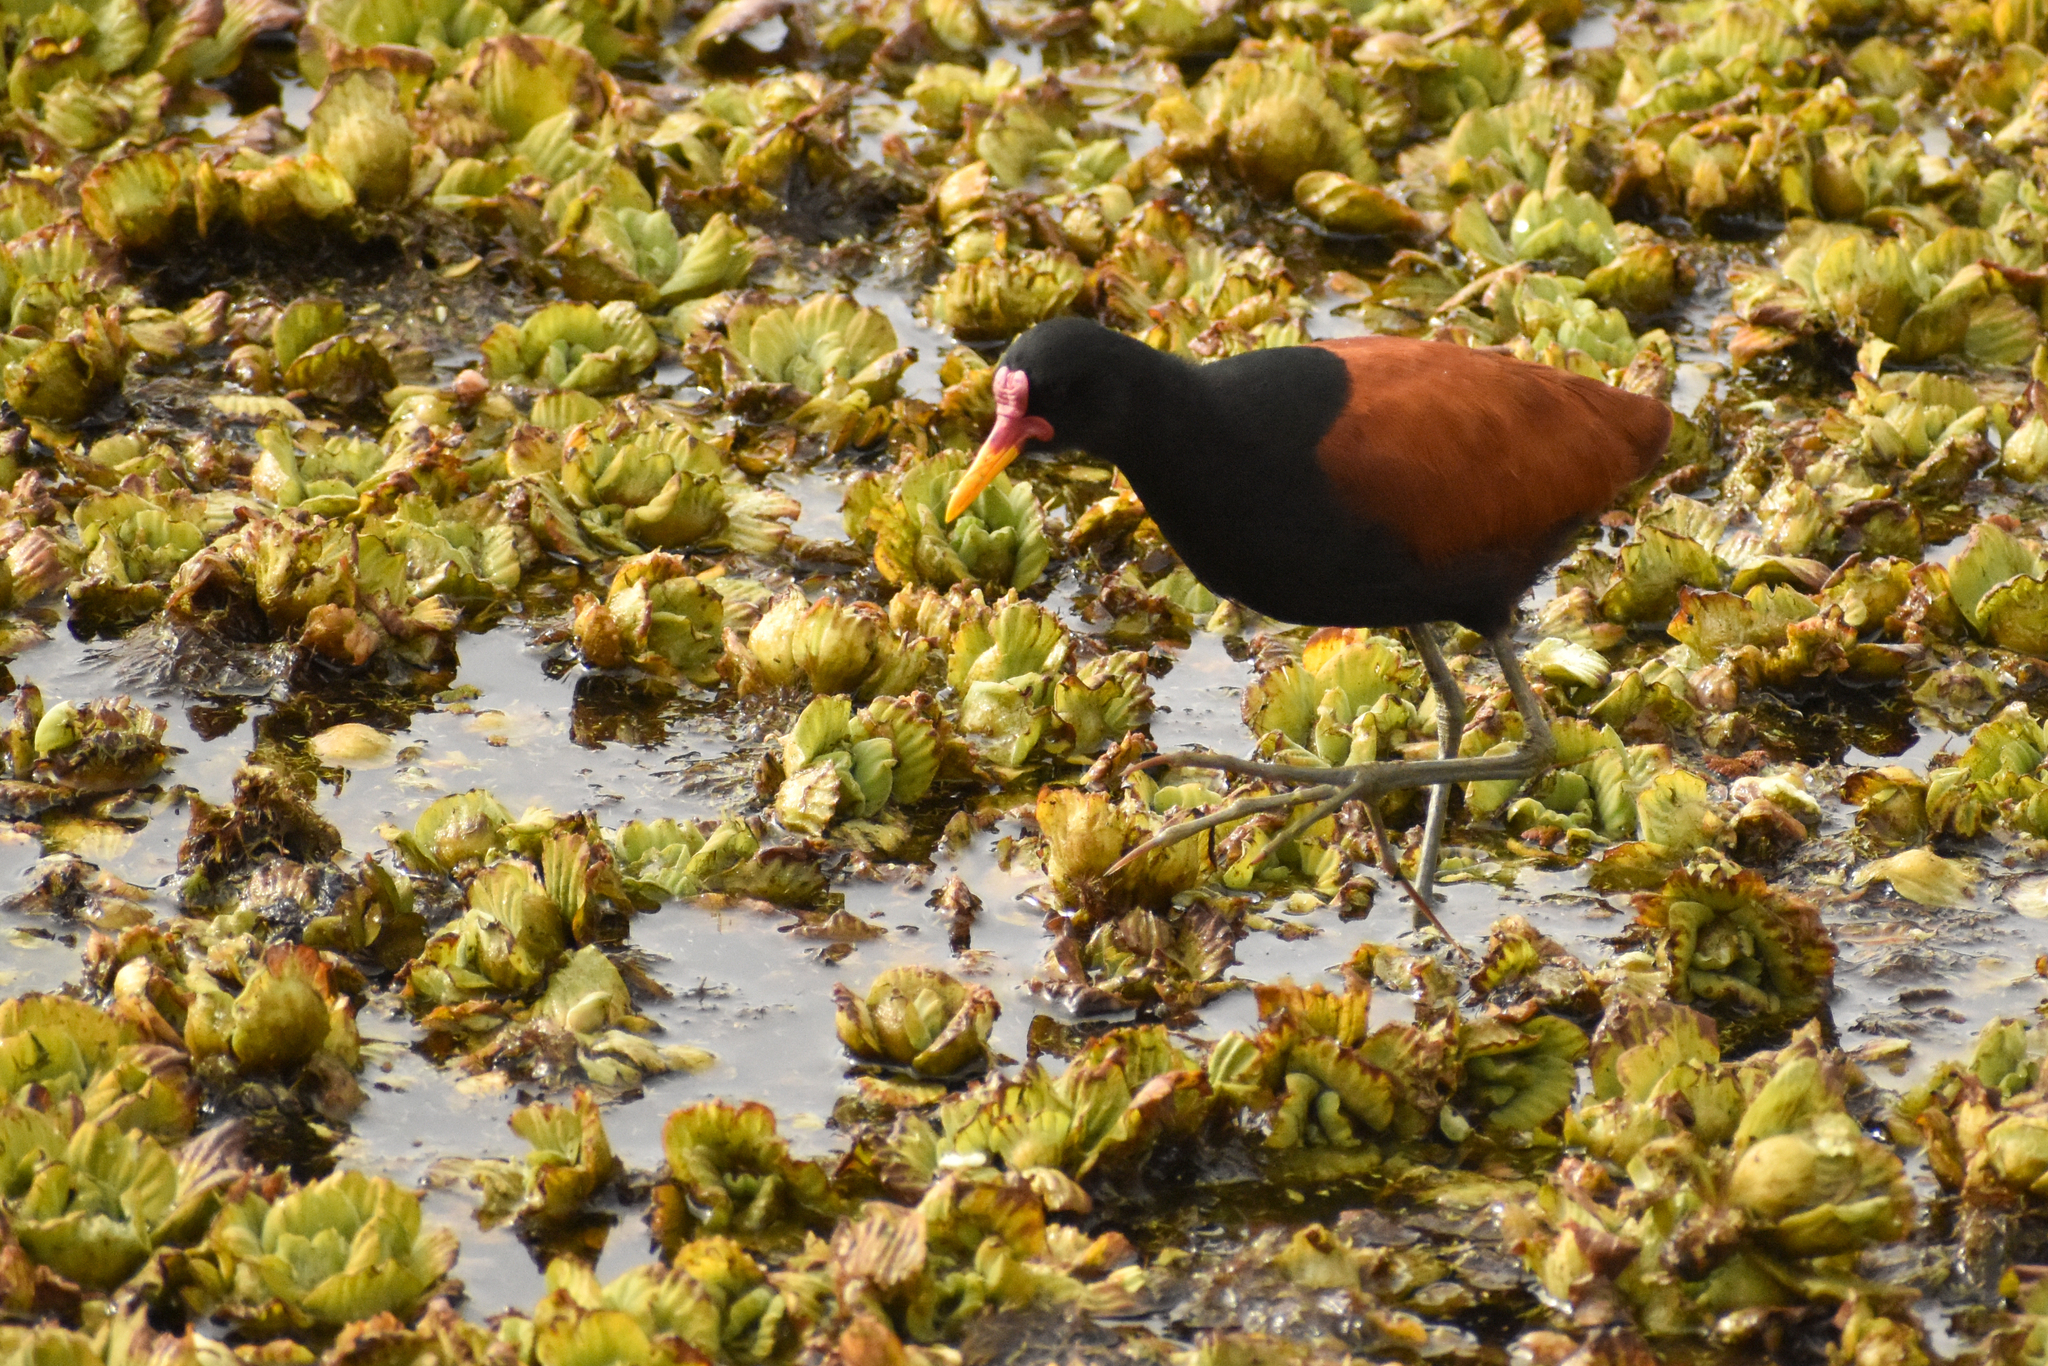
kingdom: Animalia
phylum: Chordata
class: Aves
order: Charadriiformes
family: Jacanidae
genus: Jacana
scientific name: Jacana jacana
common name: Wattled jacana
